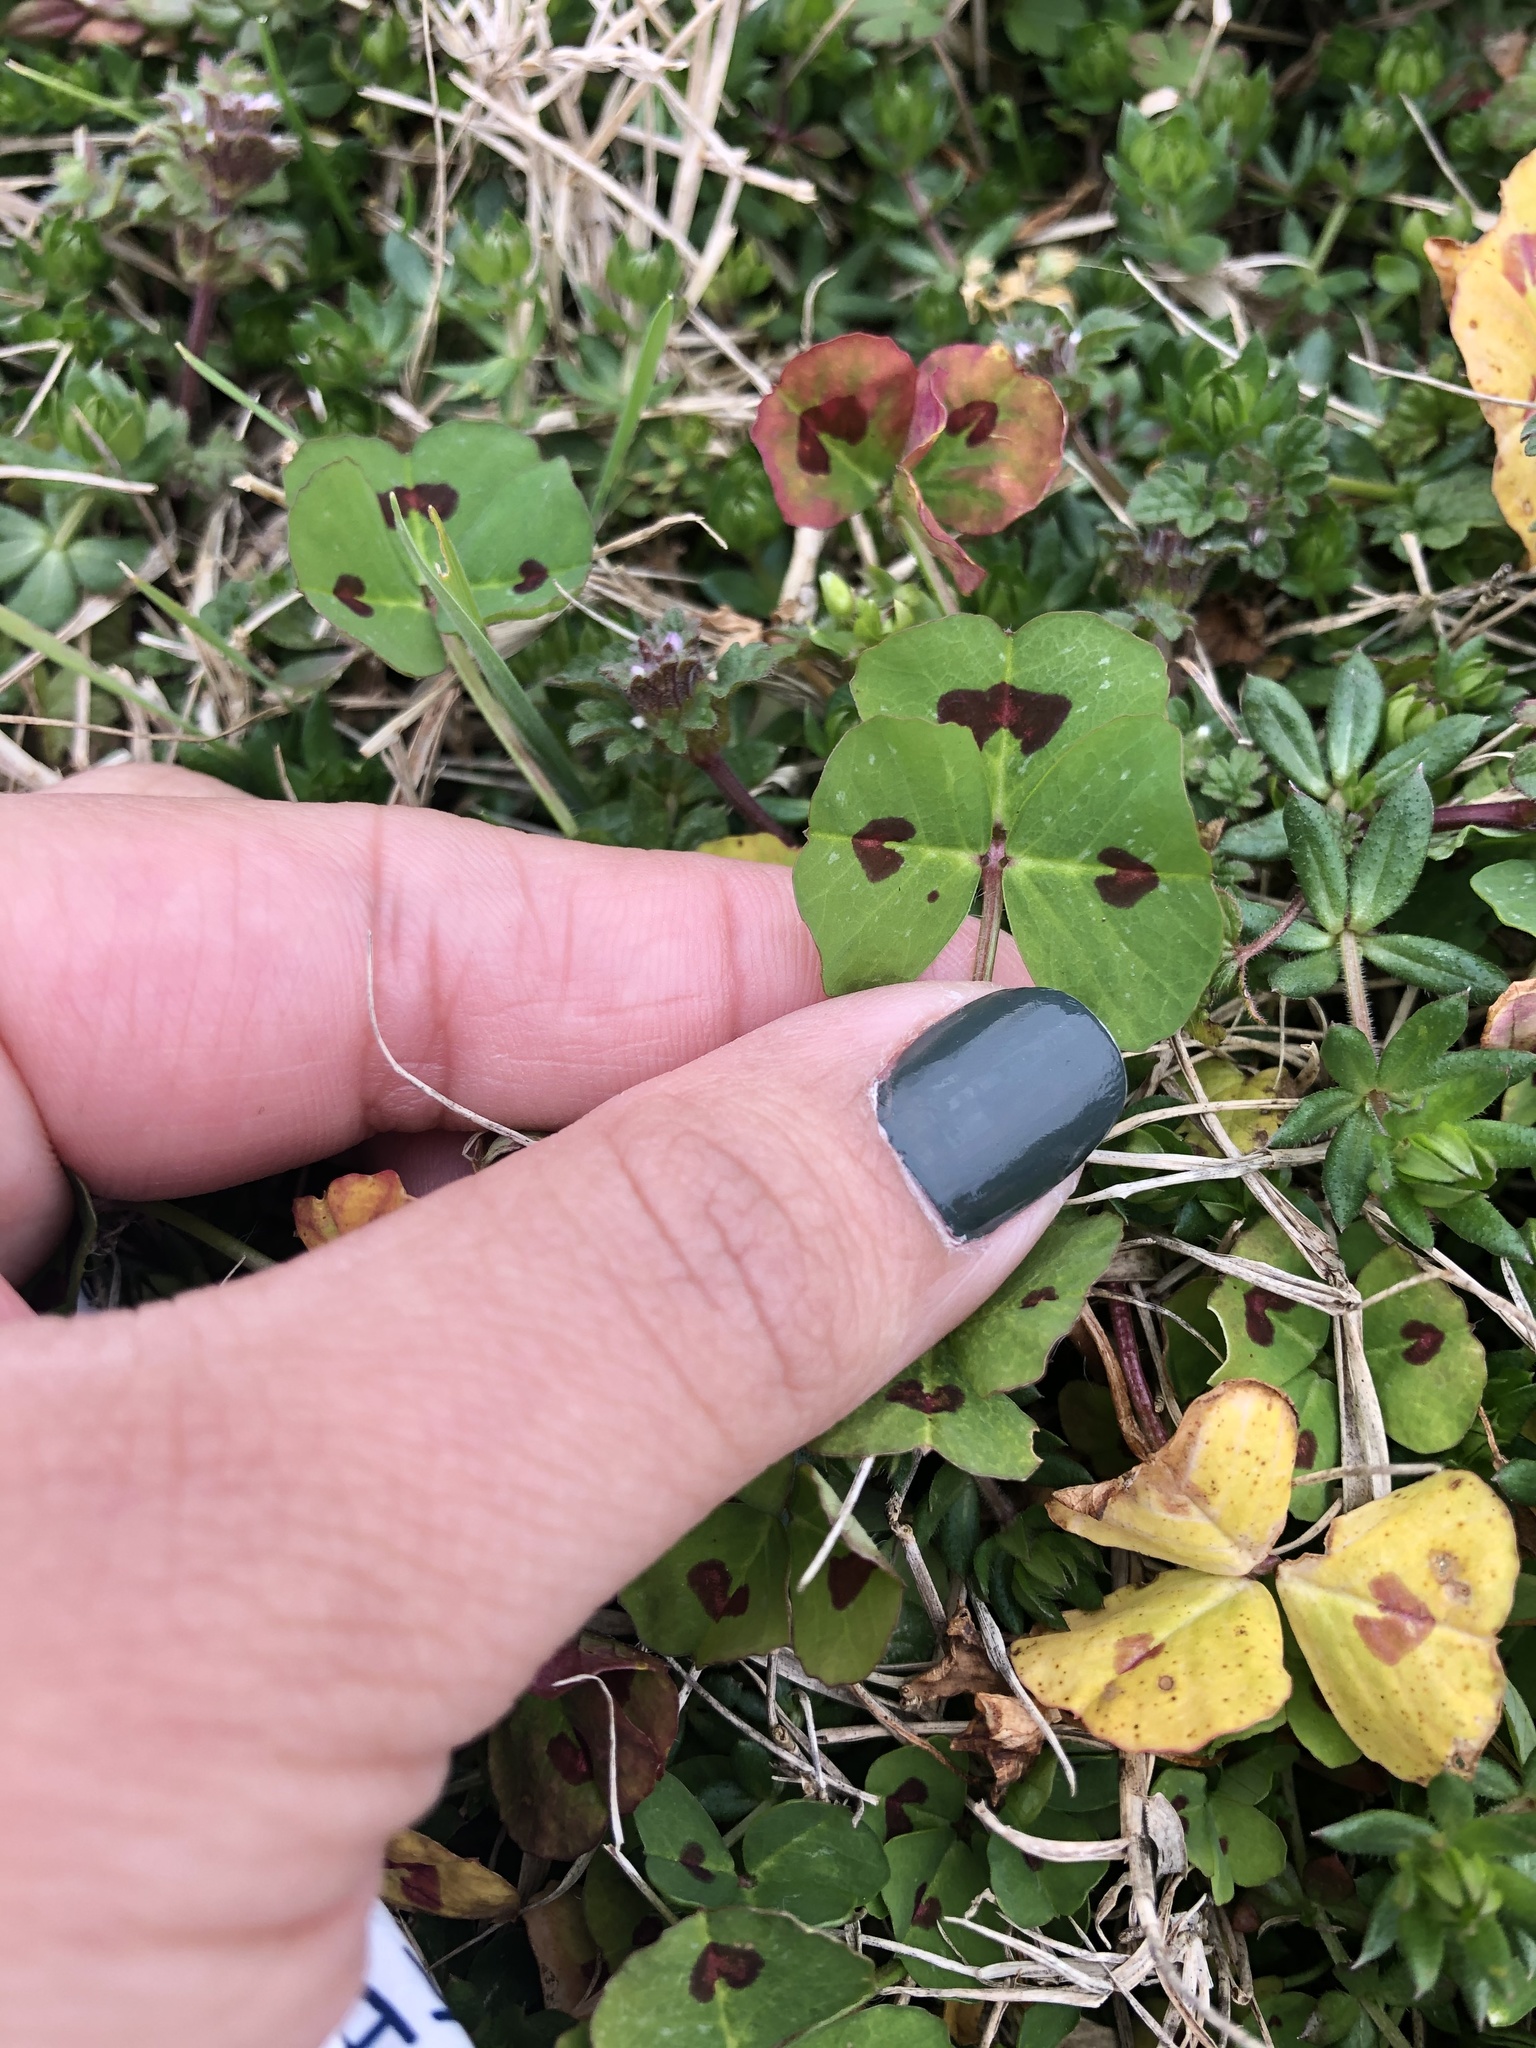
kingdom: Plantae
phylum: Tracheophyta
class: Magnoliopsida
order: Fabales
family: Fabaceae
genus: Medicago
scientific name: Medicago arabica
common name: Spotted medick
